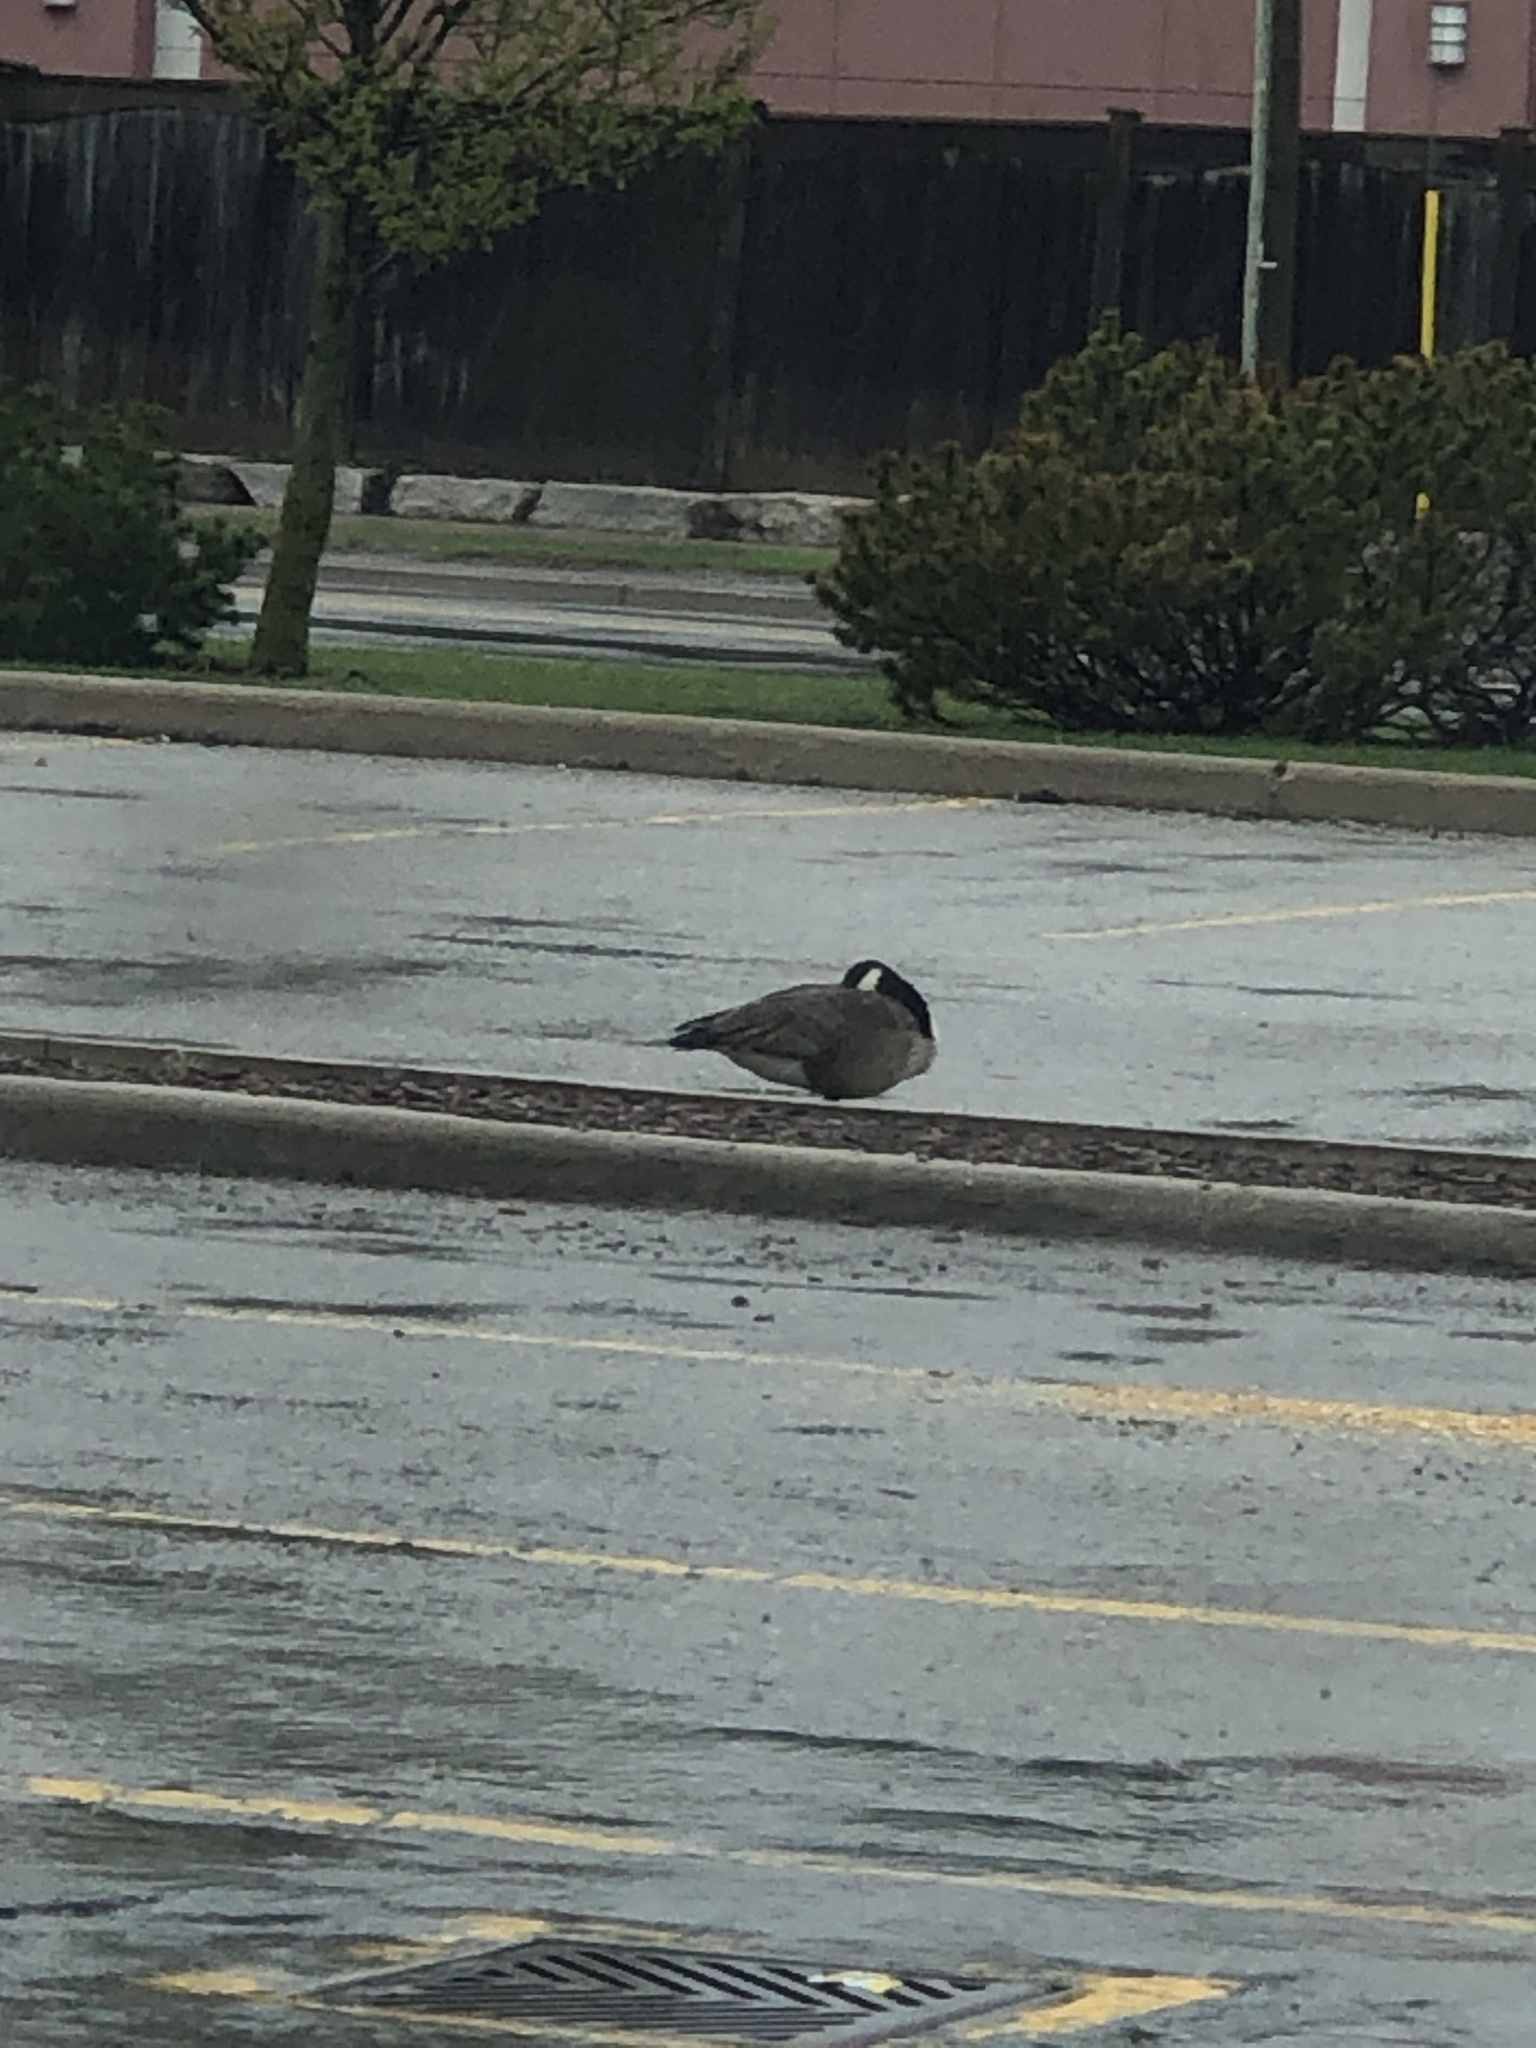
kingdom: Animalia
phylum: Chordata
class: Aves
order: Anseriformes
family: Anatidae
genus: Branta
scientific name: Branta canadensis
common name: Canada goose
